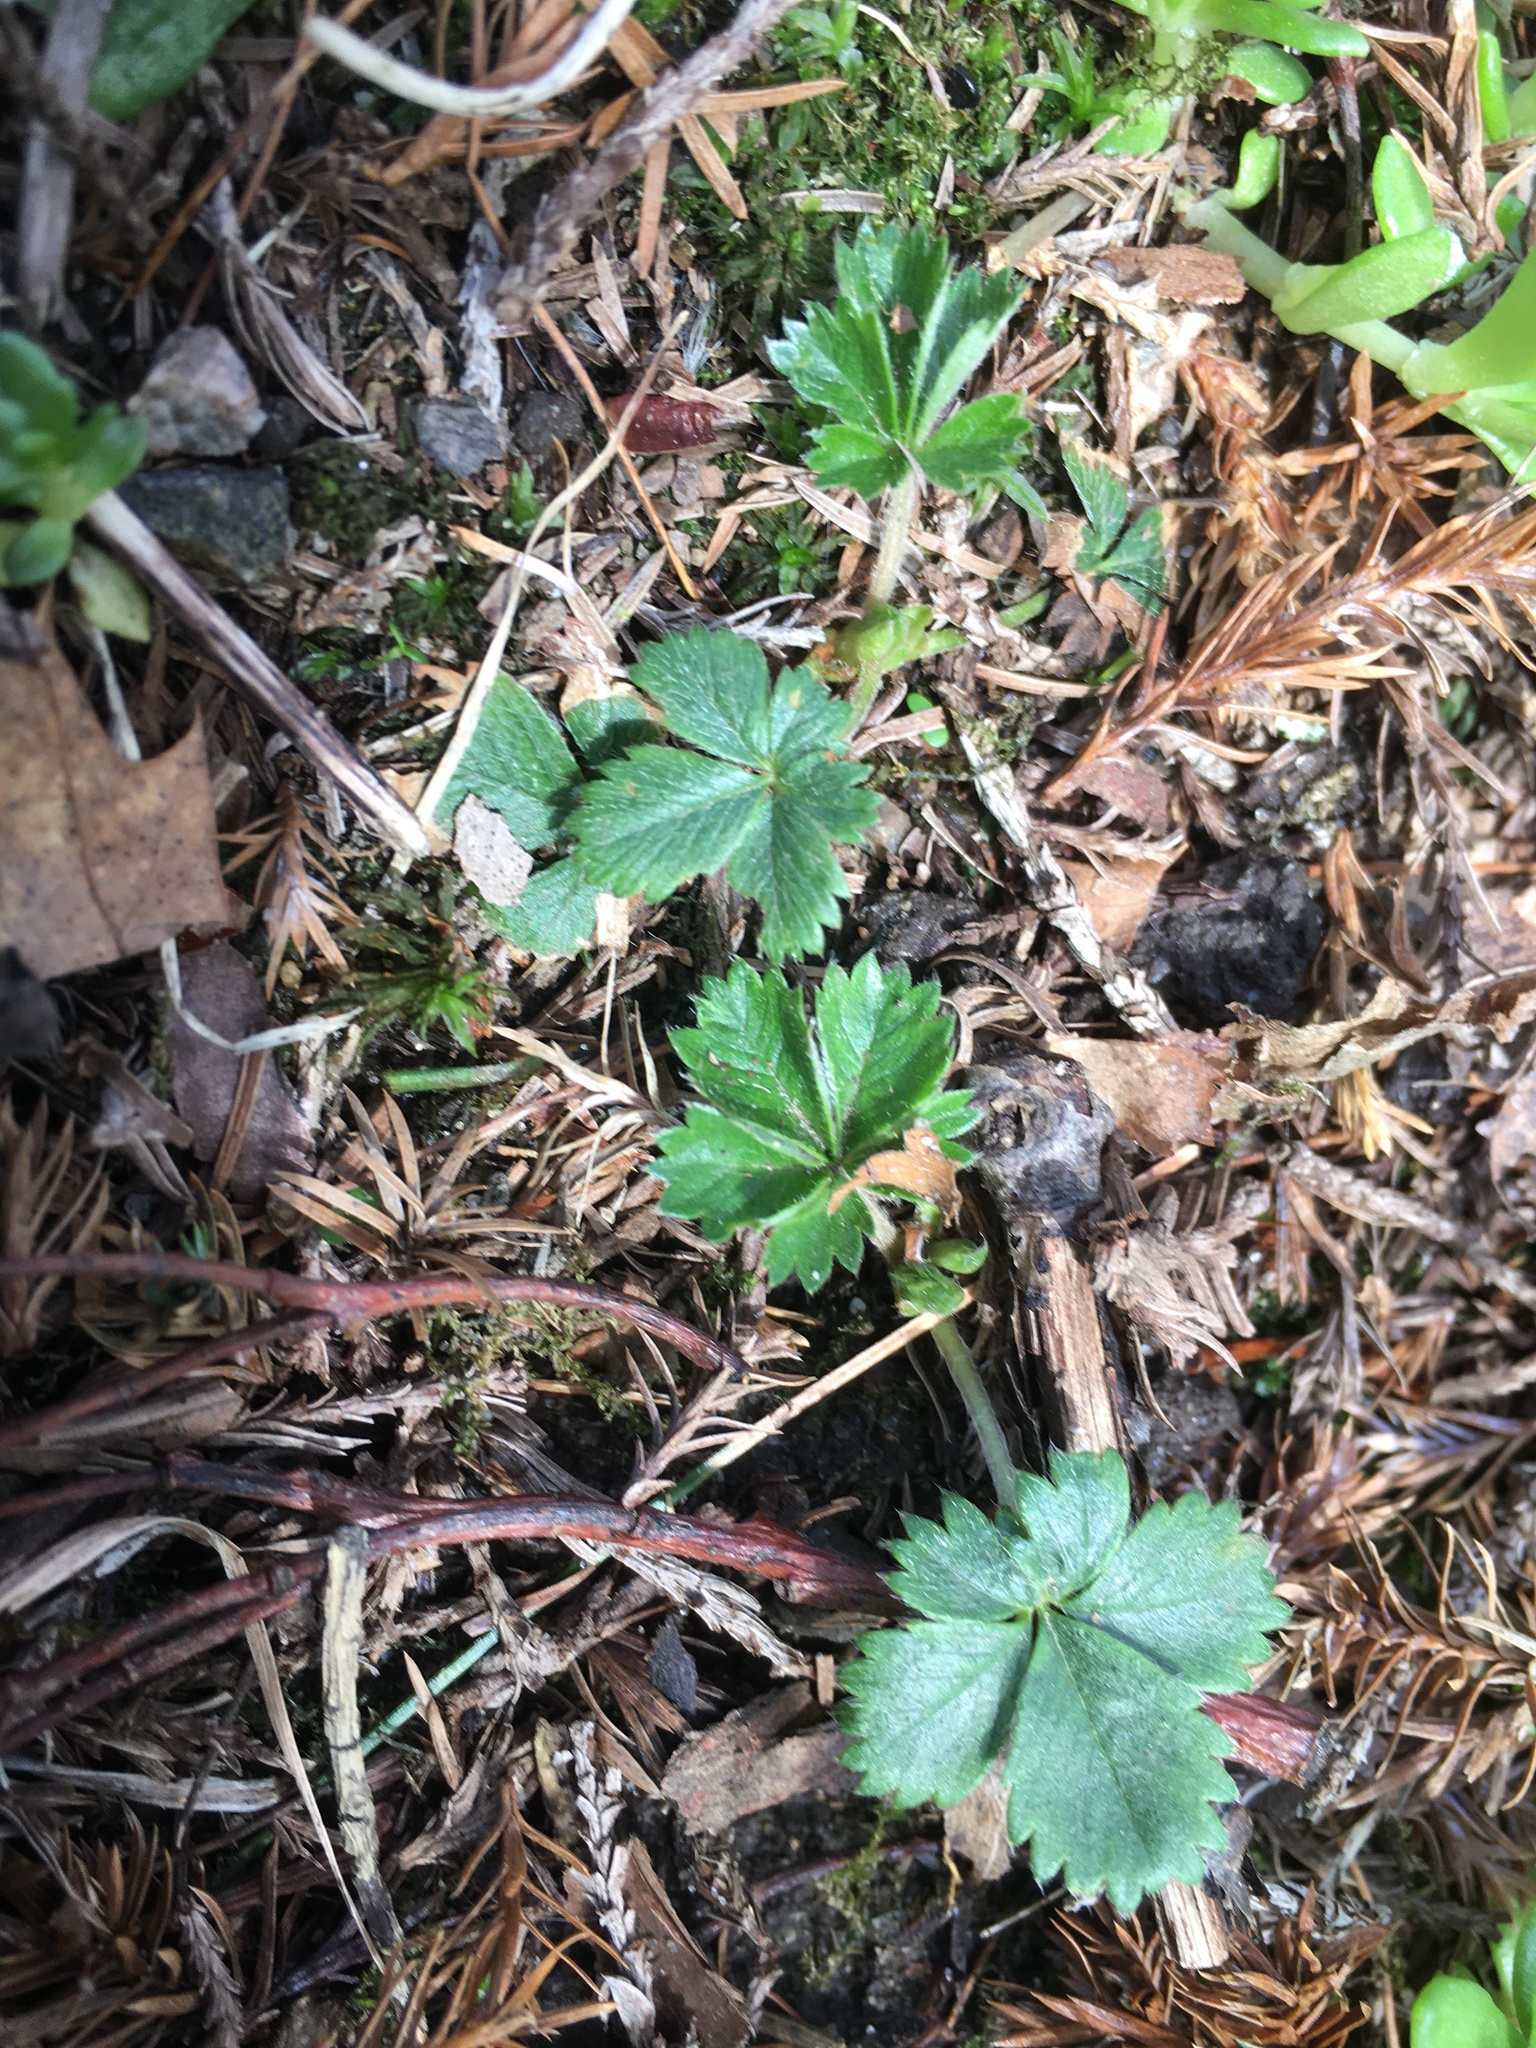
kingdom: Plantae
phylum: Tracheophyta
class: Magnoliopsida
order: Rosales
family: Rosaceae
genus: Potentilla
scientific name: Potentilla canadensis
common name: Canada cinquefoil
